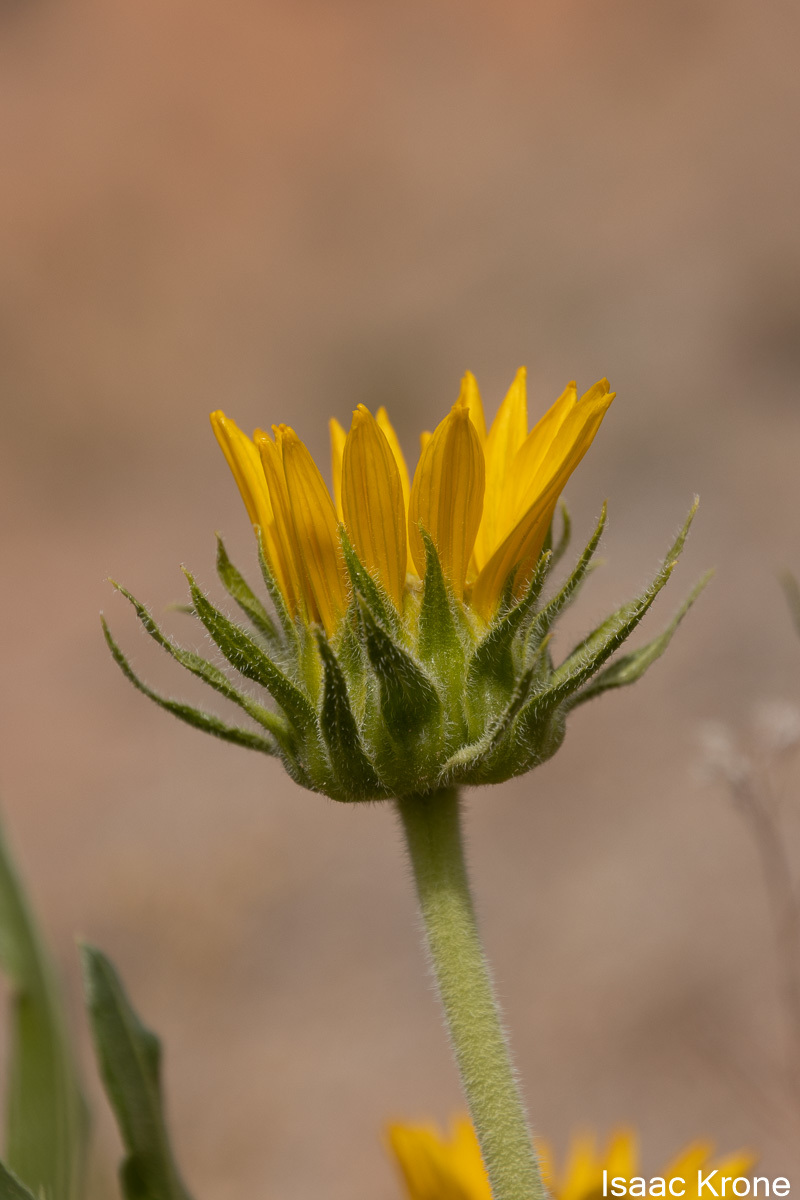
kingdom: Plantae
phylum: Tracheophyta
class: Magnoliopsida
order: Asterales
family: Asteraceae
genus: Scabrethia
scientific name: Scabrethia scabra
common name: Rough mules's-ears
